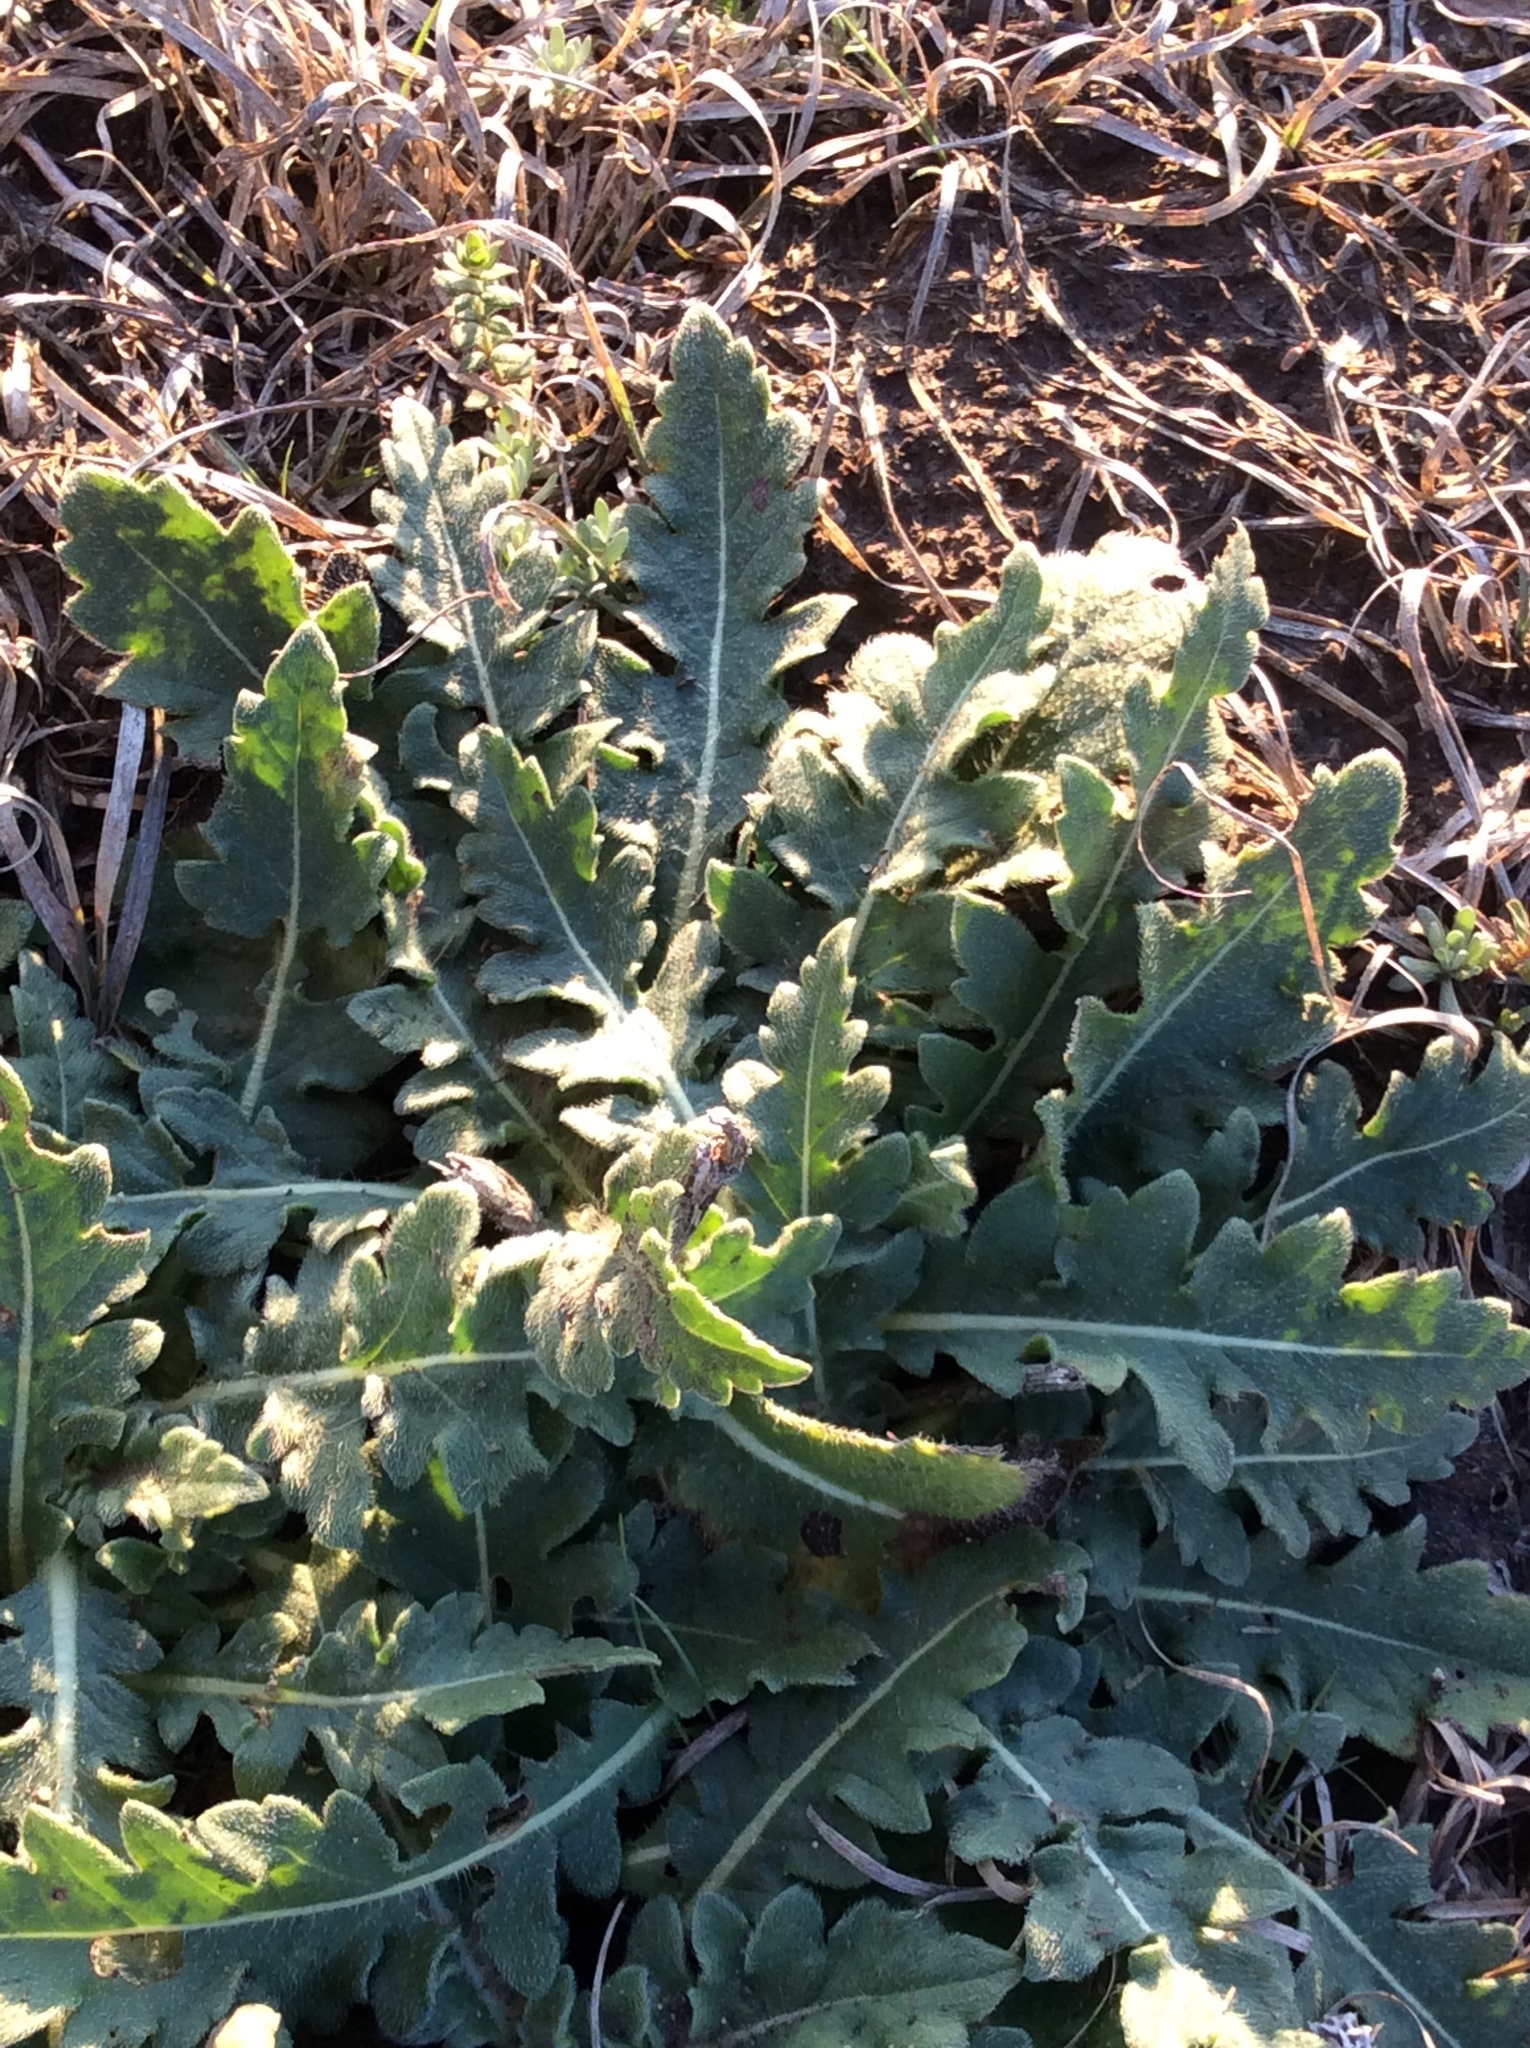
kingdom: Plantae
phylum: Tracheophyta
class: Magnoliopsida
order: Asterales
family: Asteraceae
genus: Engelmannia
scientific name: Engelmannia peristenia
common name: Engelmann's daisy
